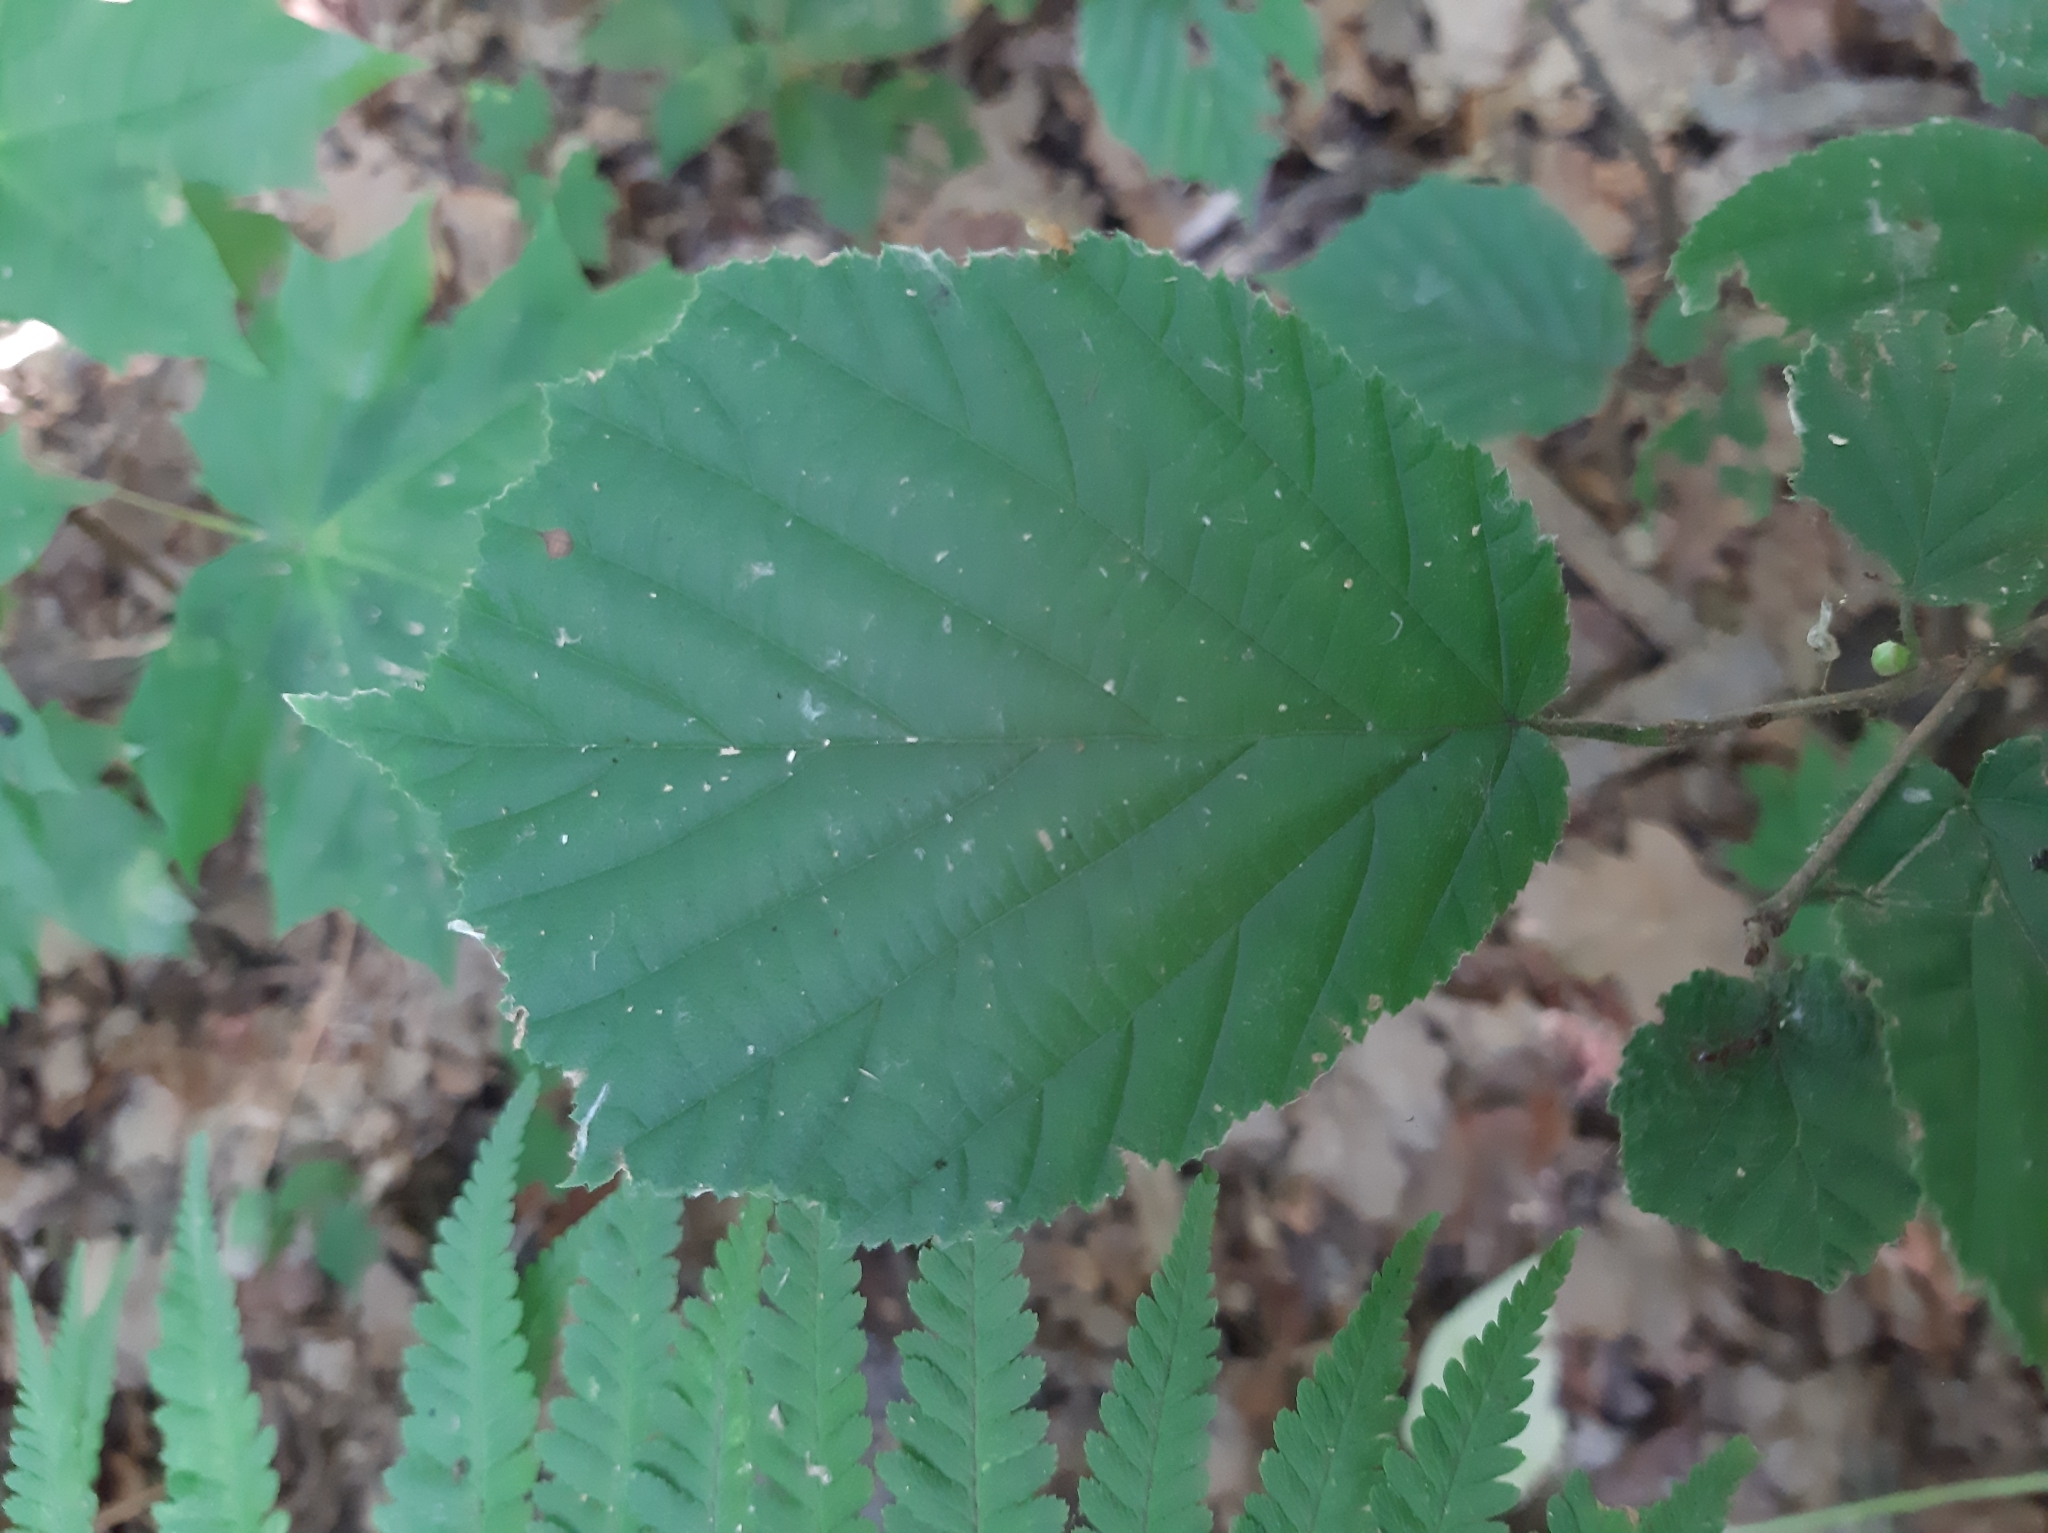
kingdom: Plantae
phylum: Tracheophyta
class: Magnoliopsida
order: Fagales
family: Betulaceae
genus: Corylus
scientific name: Corylus avellana
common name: European hazel
